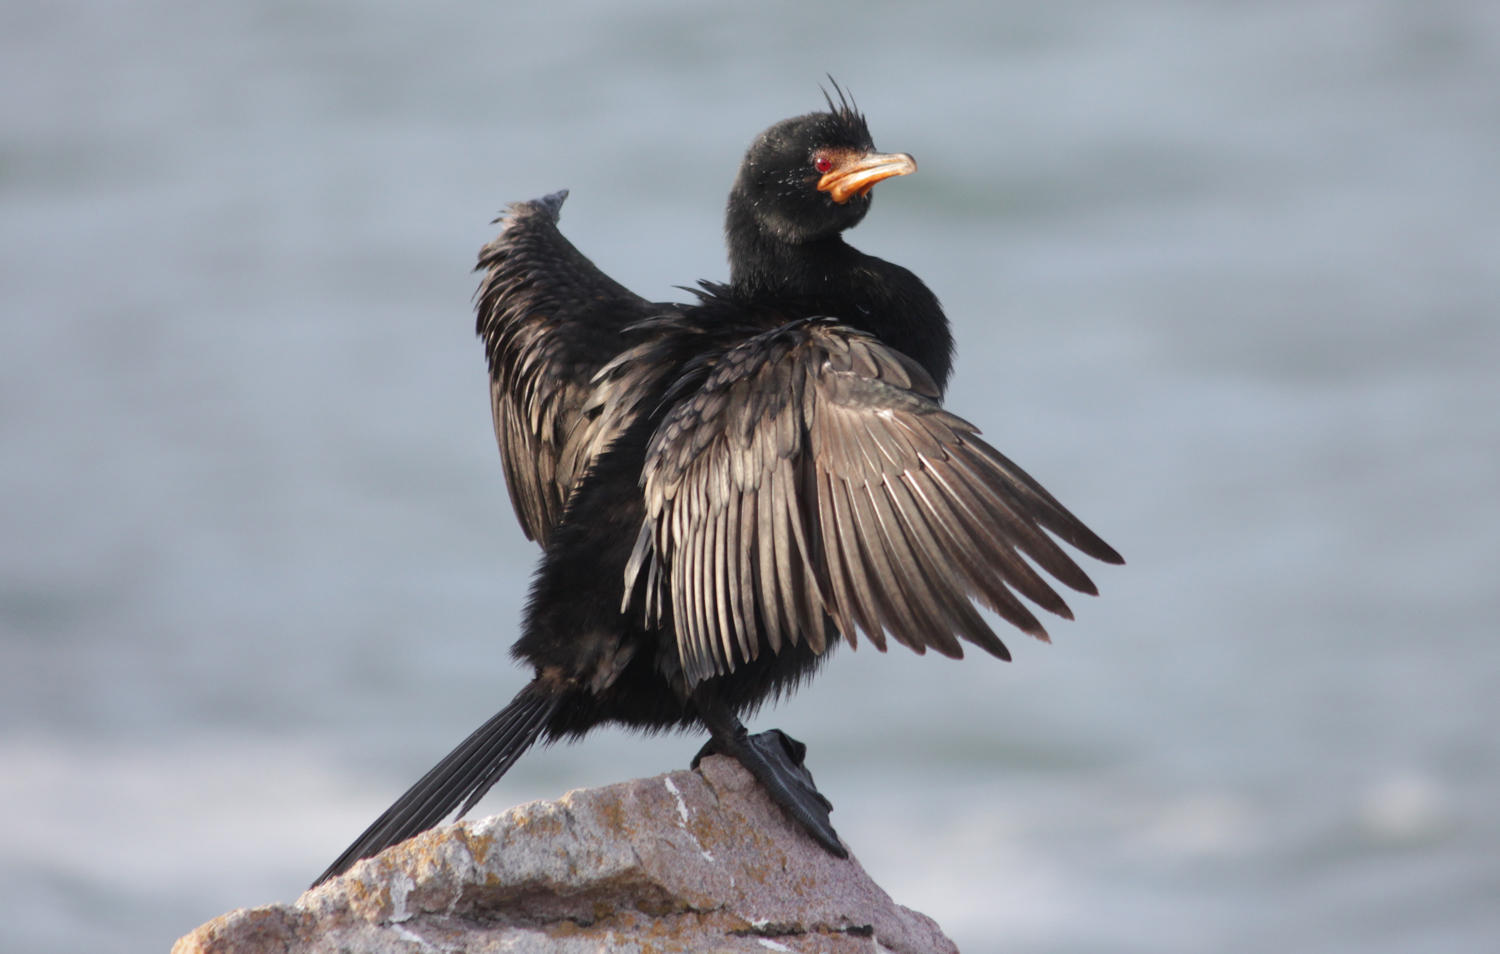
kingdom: Animalia
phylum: Chordata
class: Aves
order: Suliformes
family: Phalacrocoracidae
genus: Microcarbo
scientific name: Microcarbo coronatus
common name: Crowned cormorant
